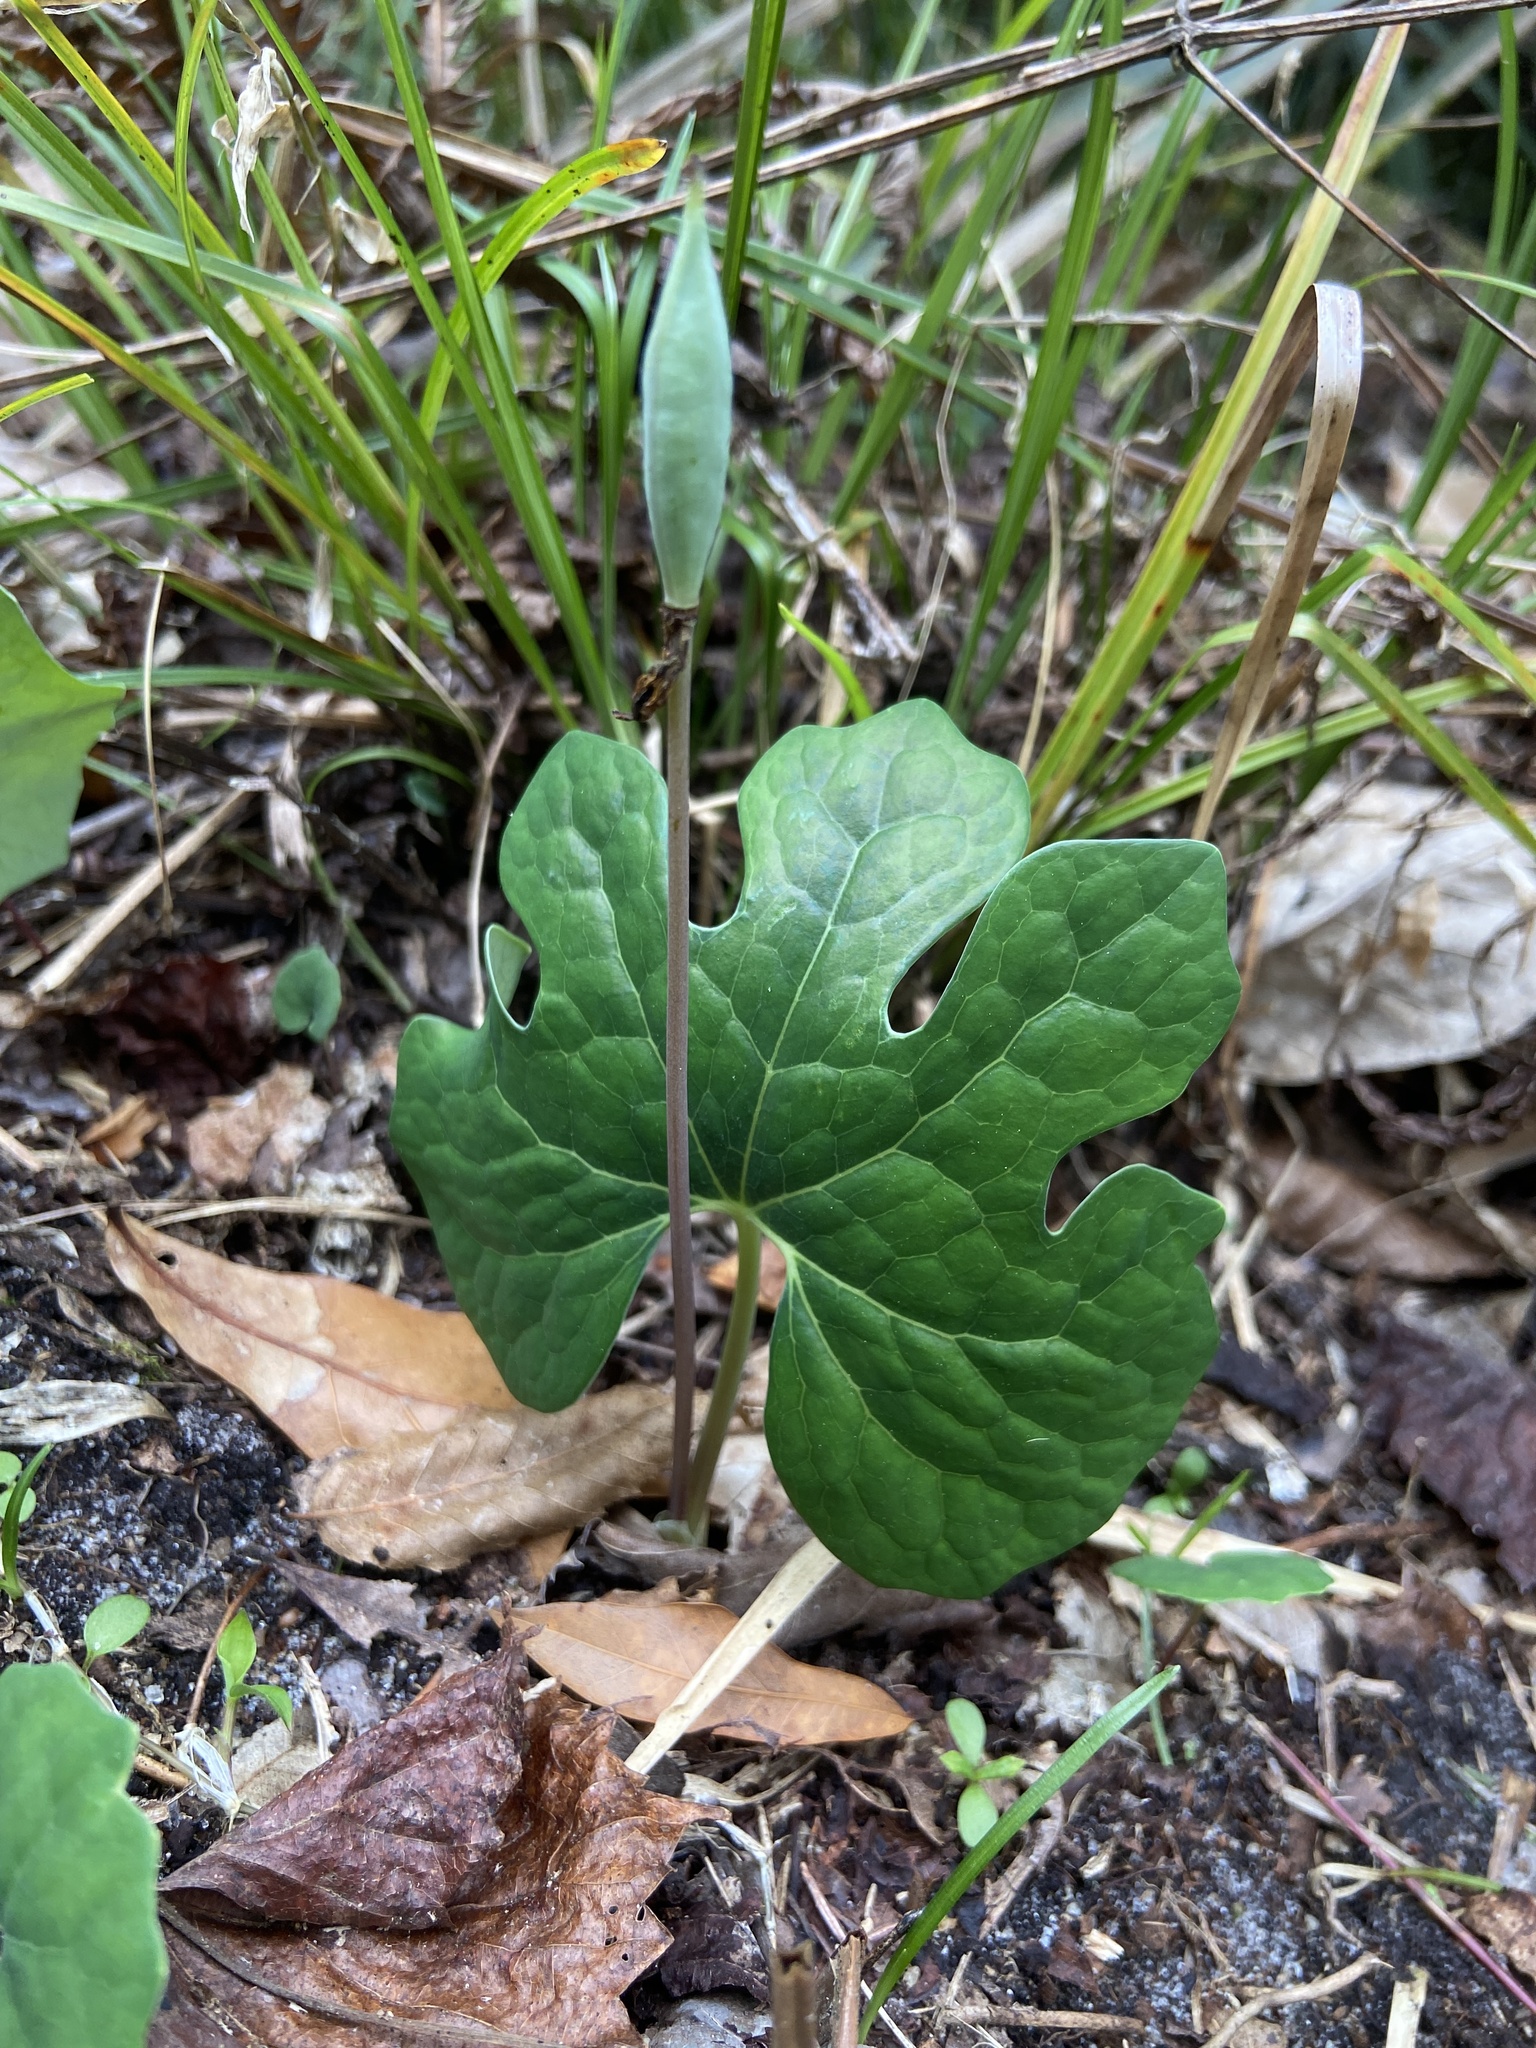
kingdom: Plantae
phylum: Tracheophyta
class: Magnoliopsida
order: Ranunculales
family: Papaveraceae
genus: Sanguinaria
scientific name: Sanguinaria canadensis
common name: Bloodroot
